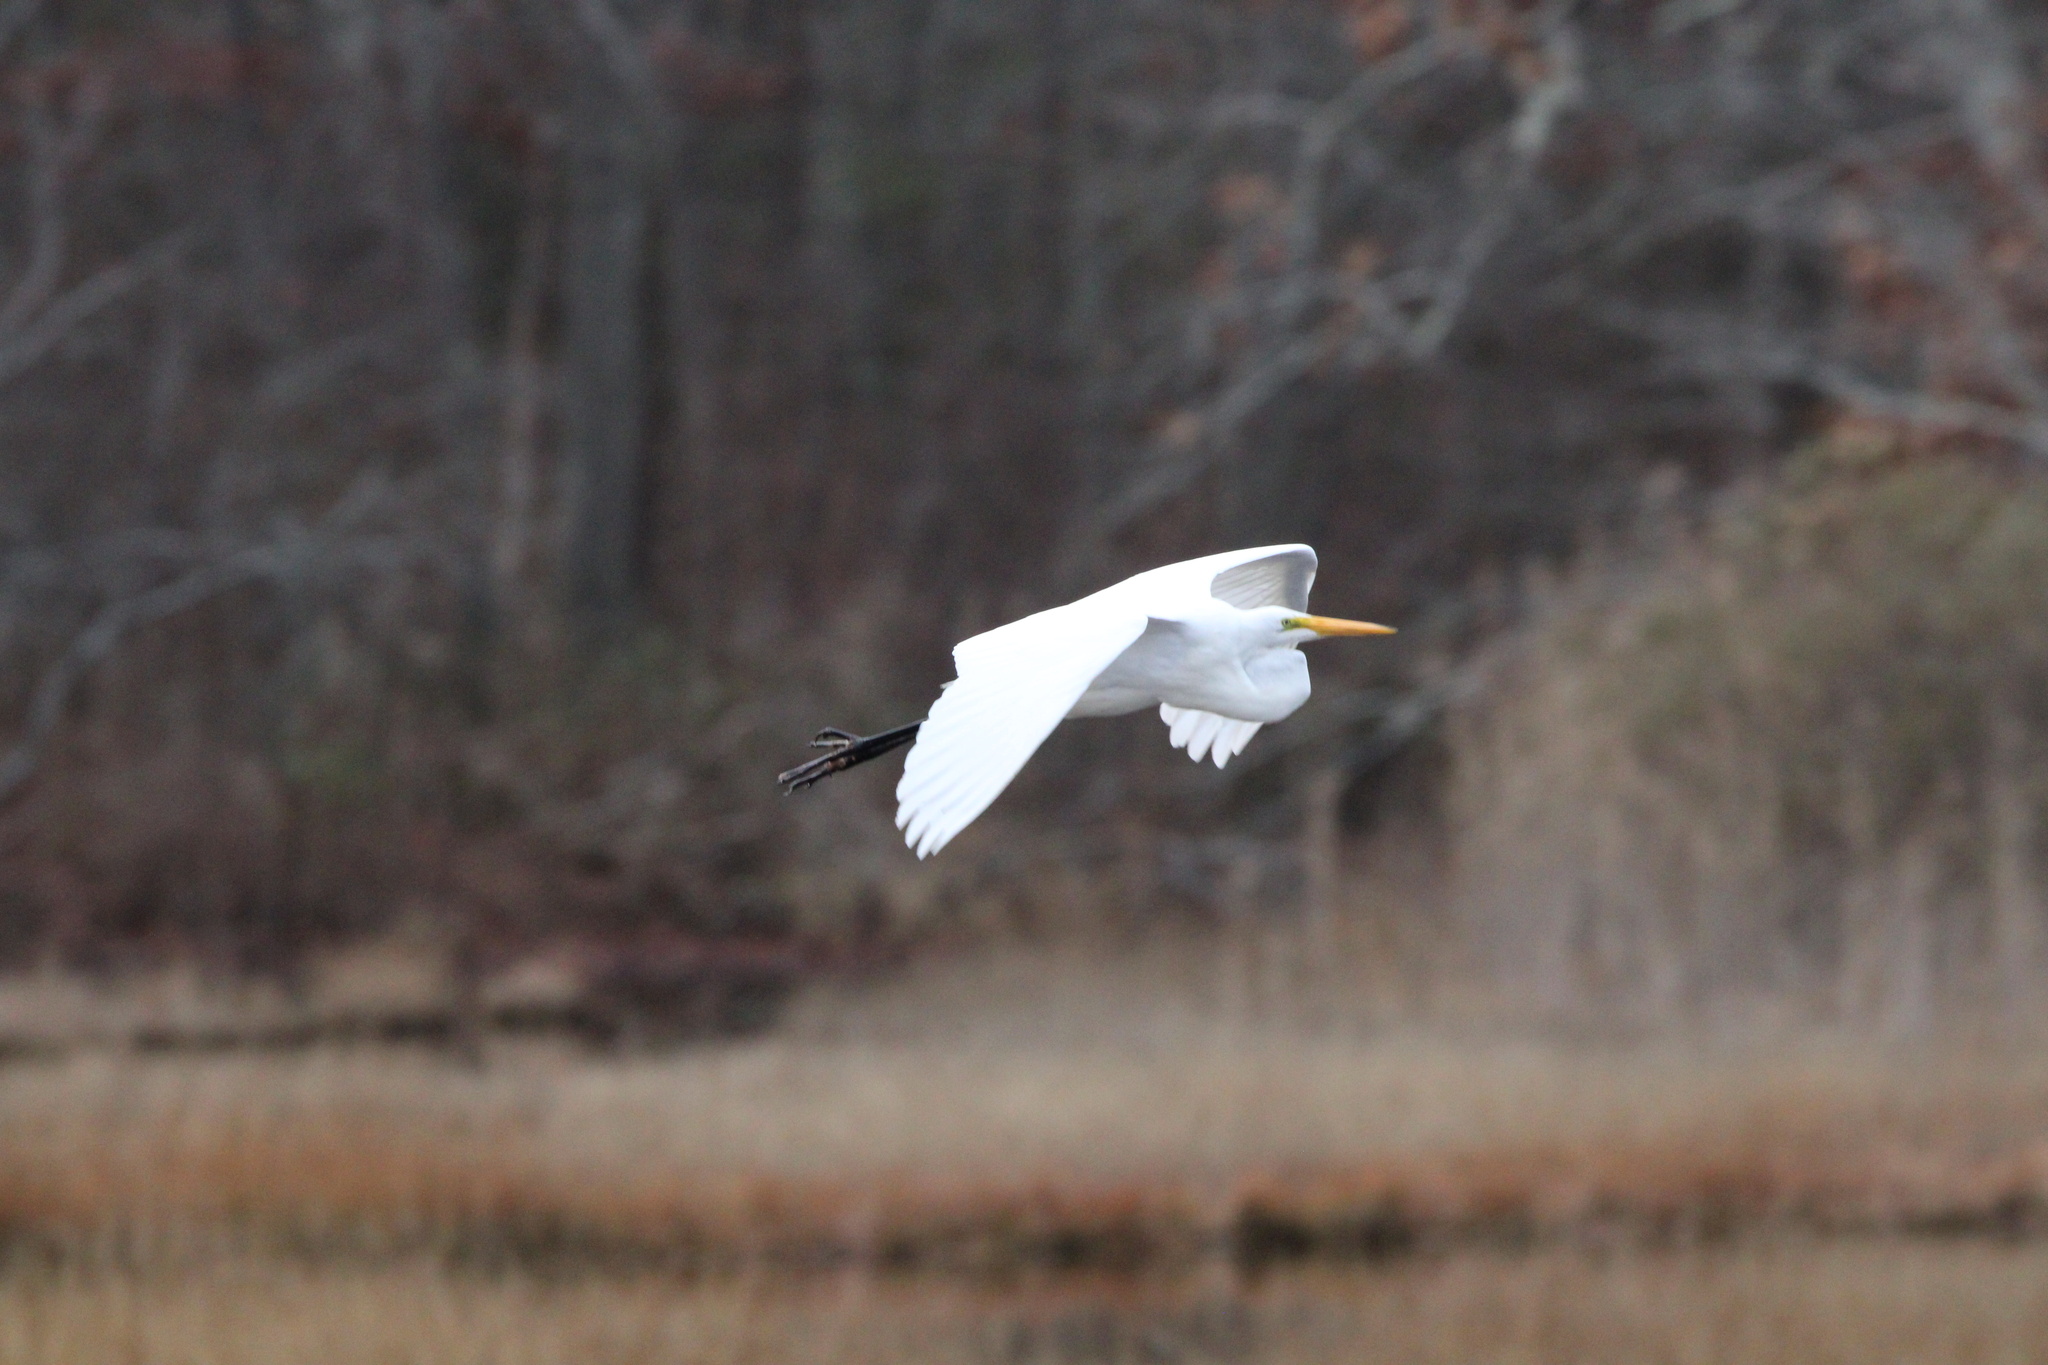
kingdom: Animalia
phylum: Chordata
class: Aves
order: Pelecaniformes
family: Ardeidae
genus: Ardea
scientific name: Ardea alba
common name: Great egret
